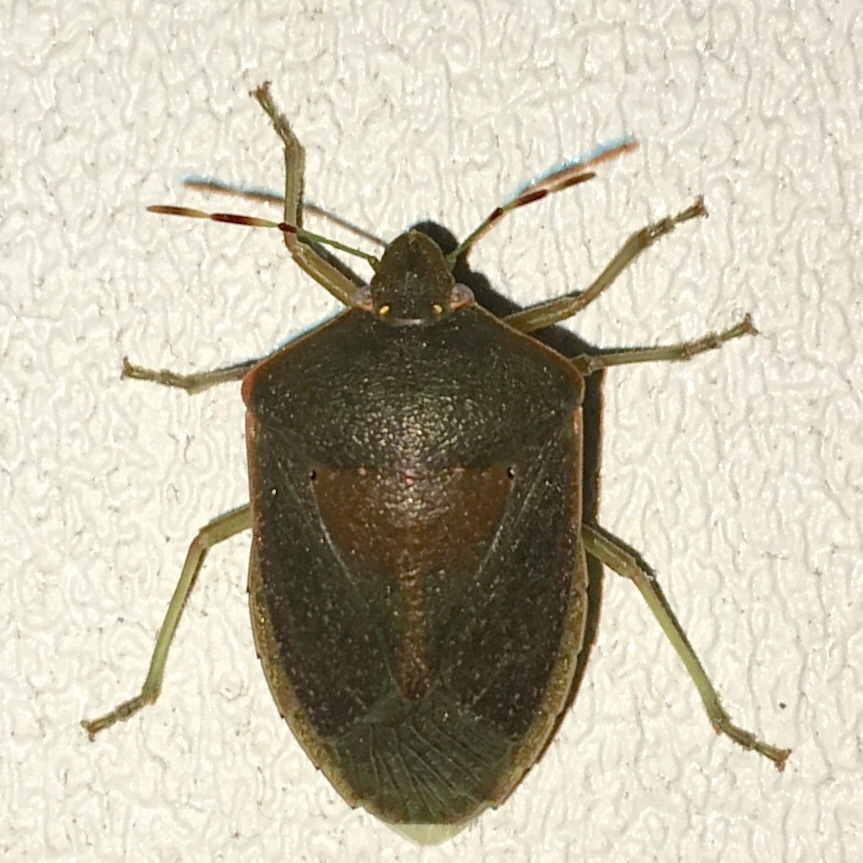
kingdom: Animalia
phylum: Arthropoda
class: Insecta
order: Hemiptera
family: Pentatomidae
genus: Nezara
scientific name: Nezara viridula
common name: Southern green stink bug
